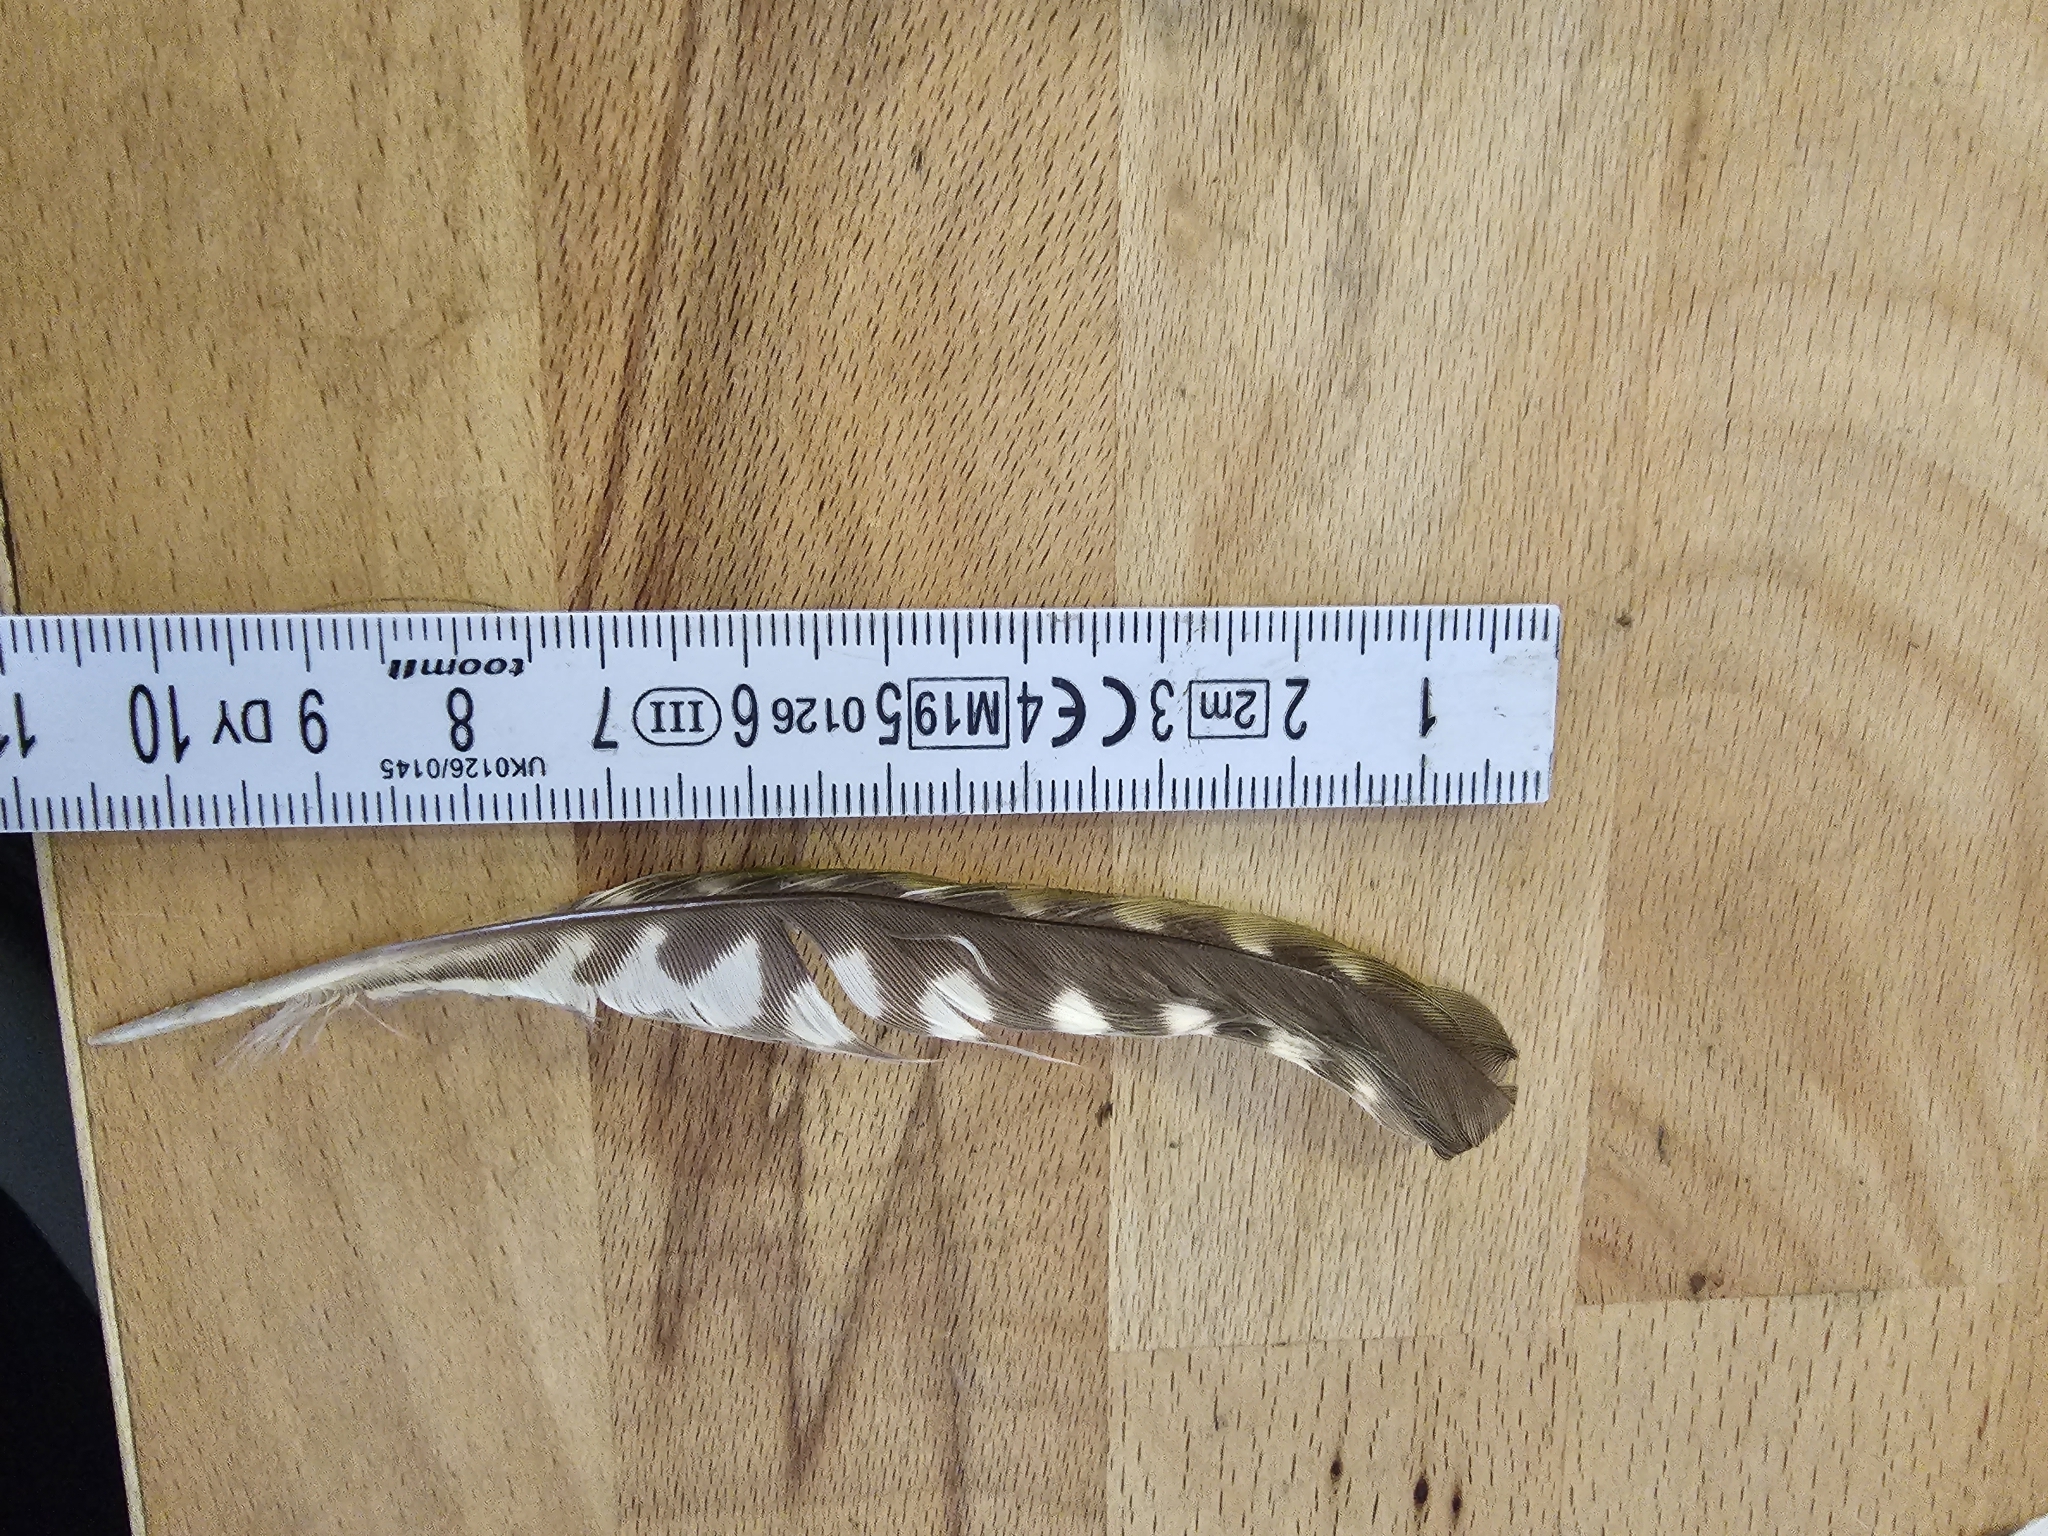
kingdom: Animalia
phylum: Chordata
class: Aves
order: Piciformes
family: Picidae
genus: Picus
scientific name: Picus viridis
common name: European green woodpecker
